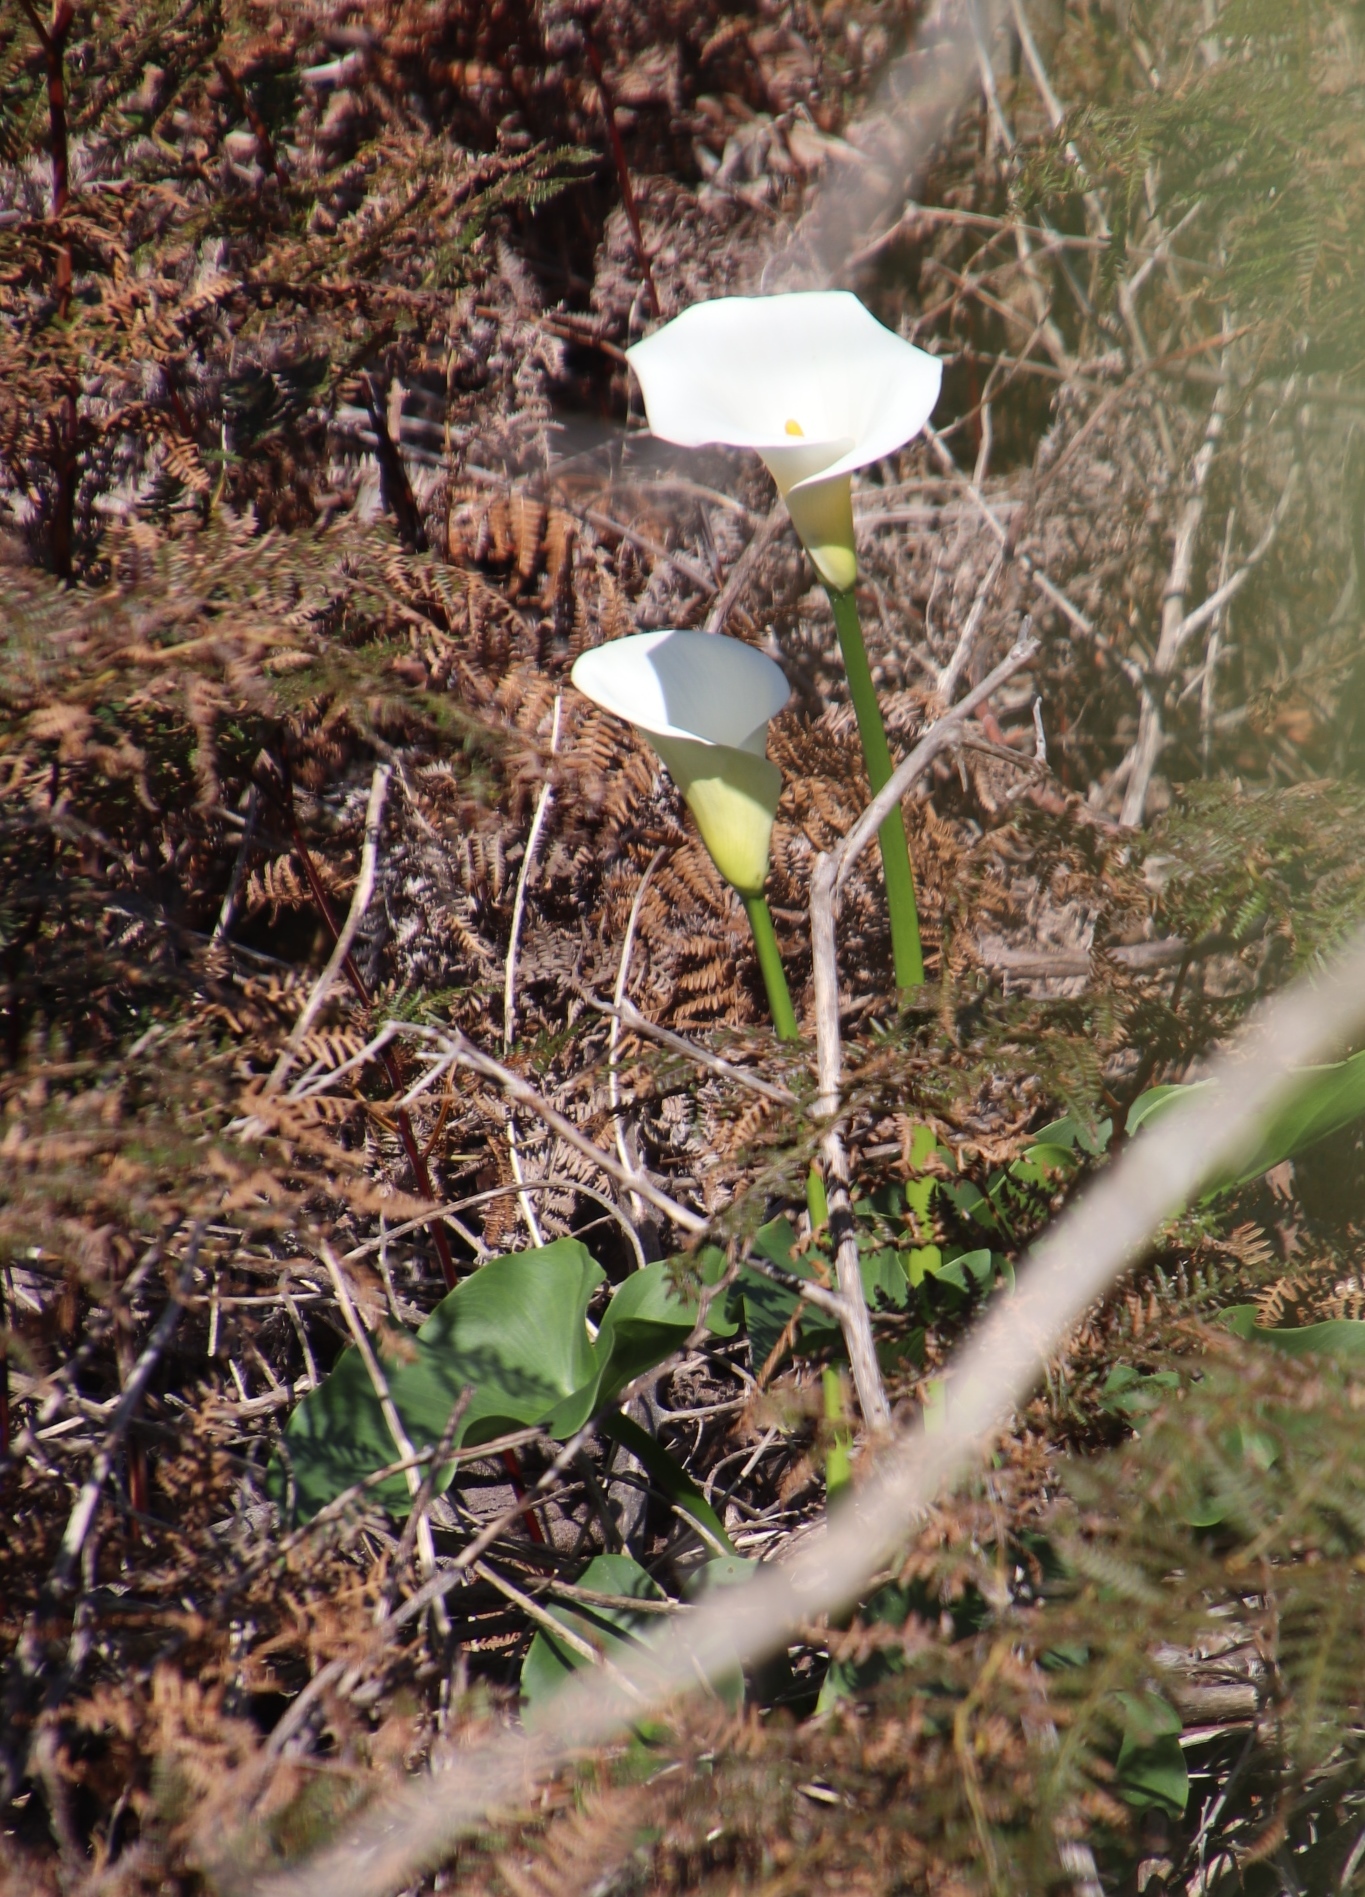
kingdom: Plantae
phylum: Tracheophyta
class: Liliopsida
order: Alismatales
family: Araceae
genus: Zantedeschia
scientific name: Zantedeschia aethiopica
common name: Altar-lily
